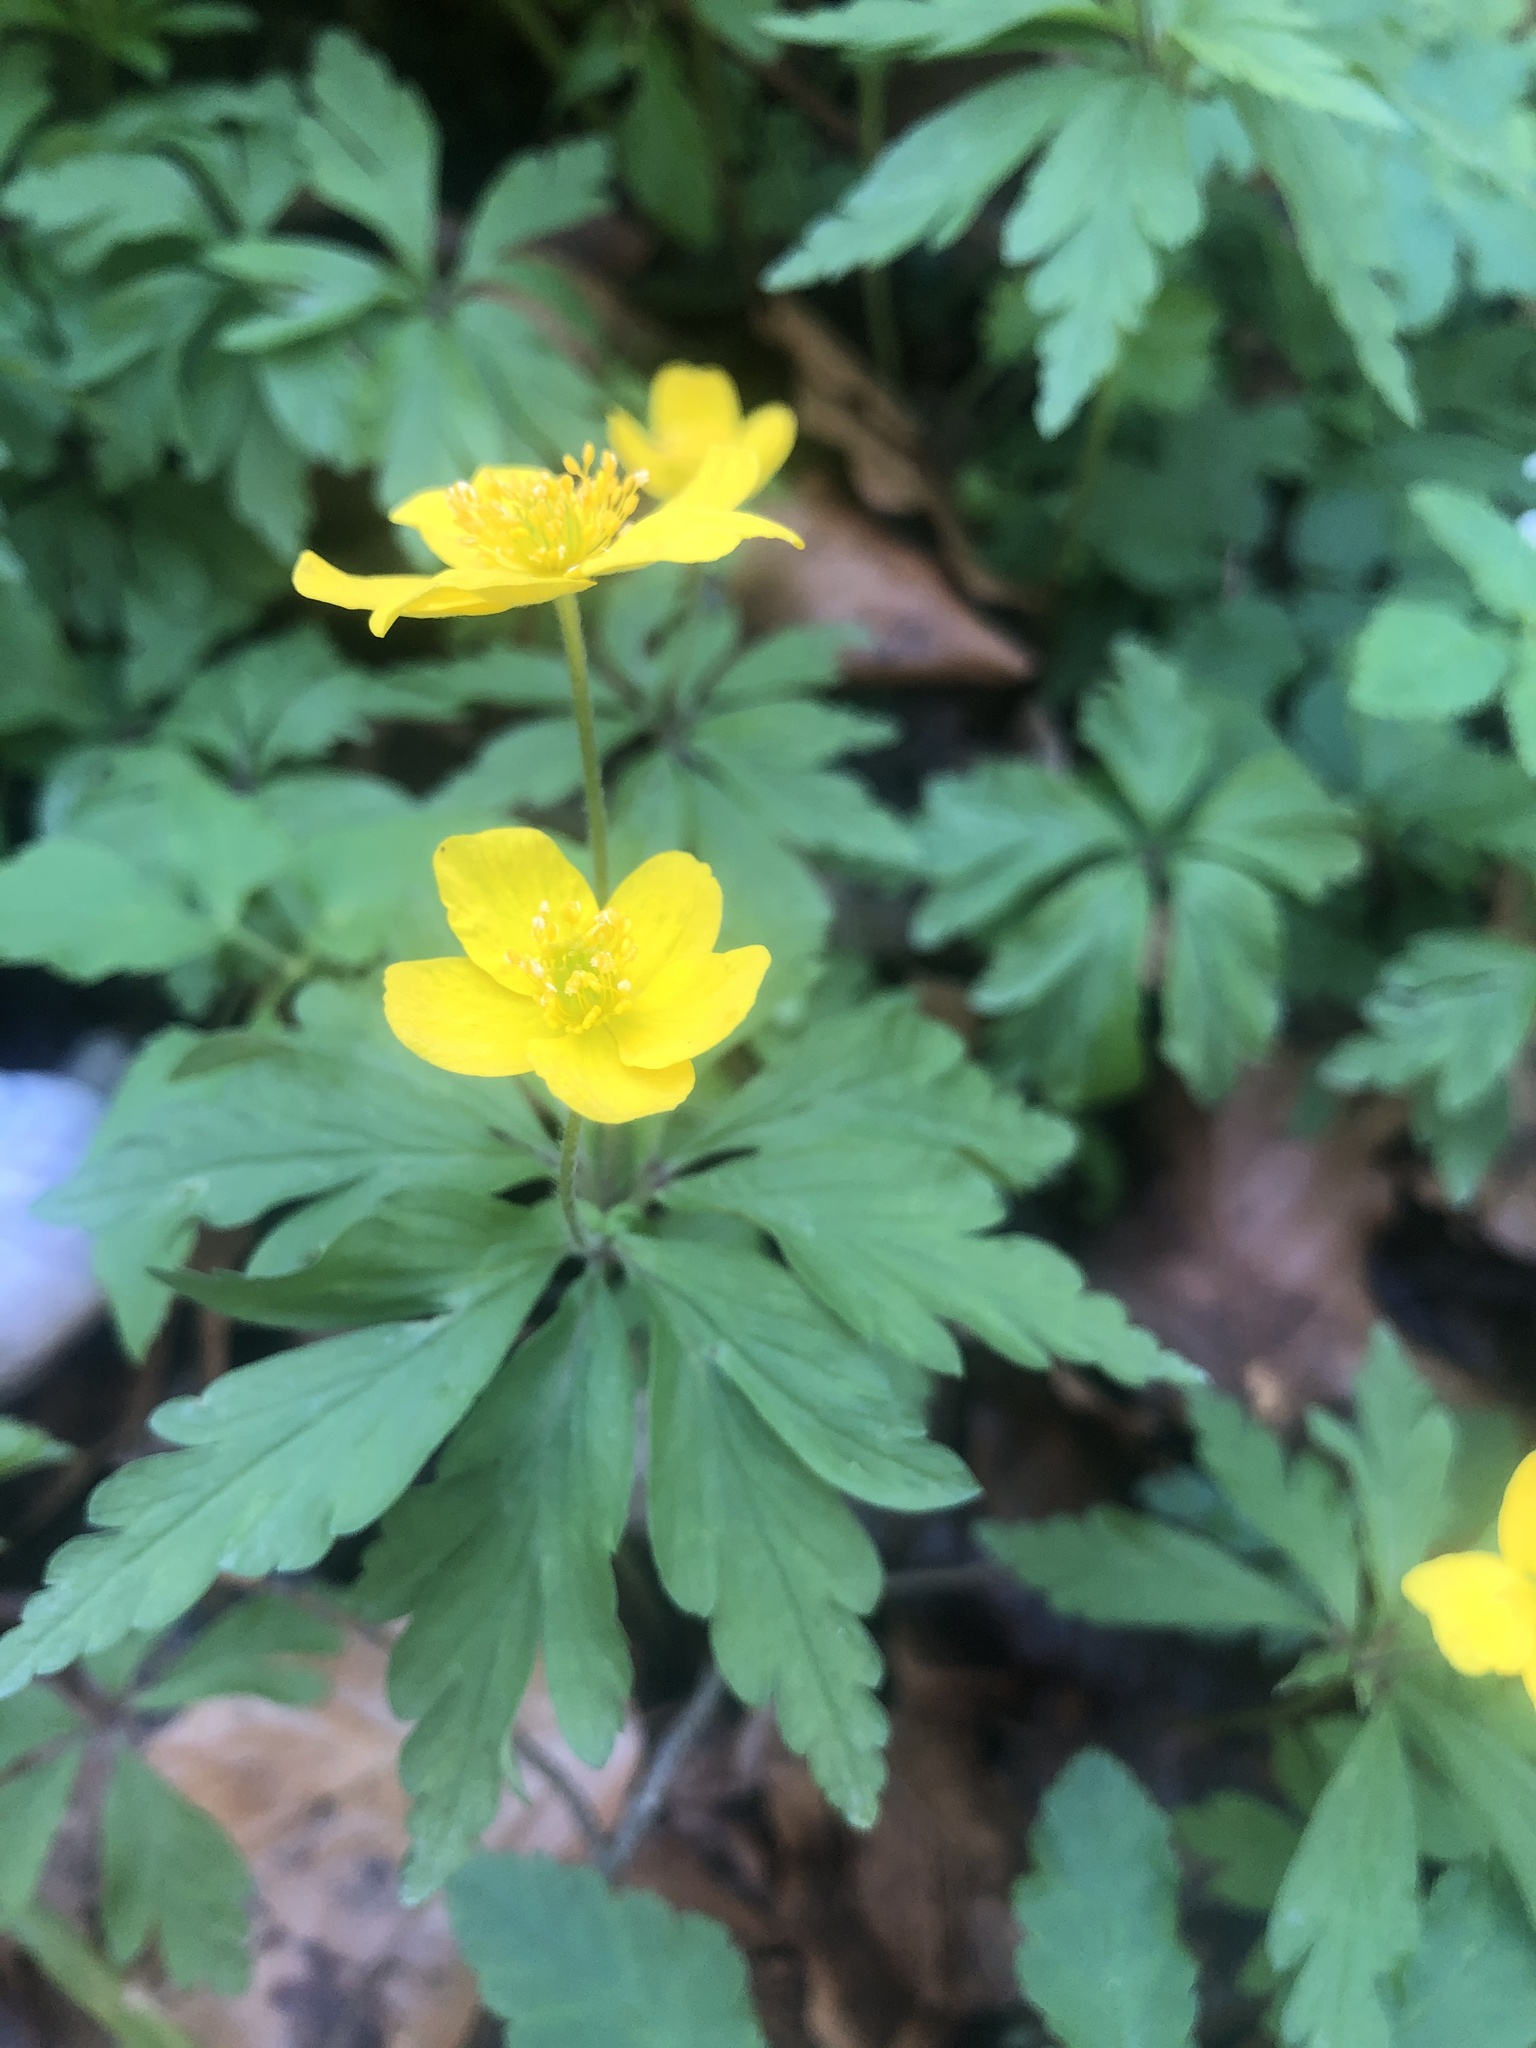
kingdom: Plantae
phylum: Tracheophyta
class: Magnoliopsida
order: Ranunculales
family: Ranunculaceae
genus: Anemone
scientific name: Anemone ranunculoides
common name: Yellow anemone
